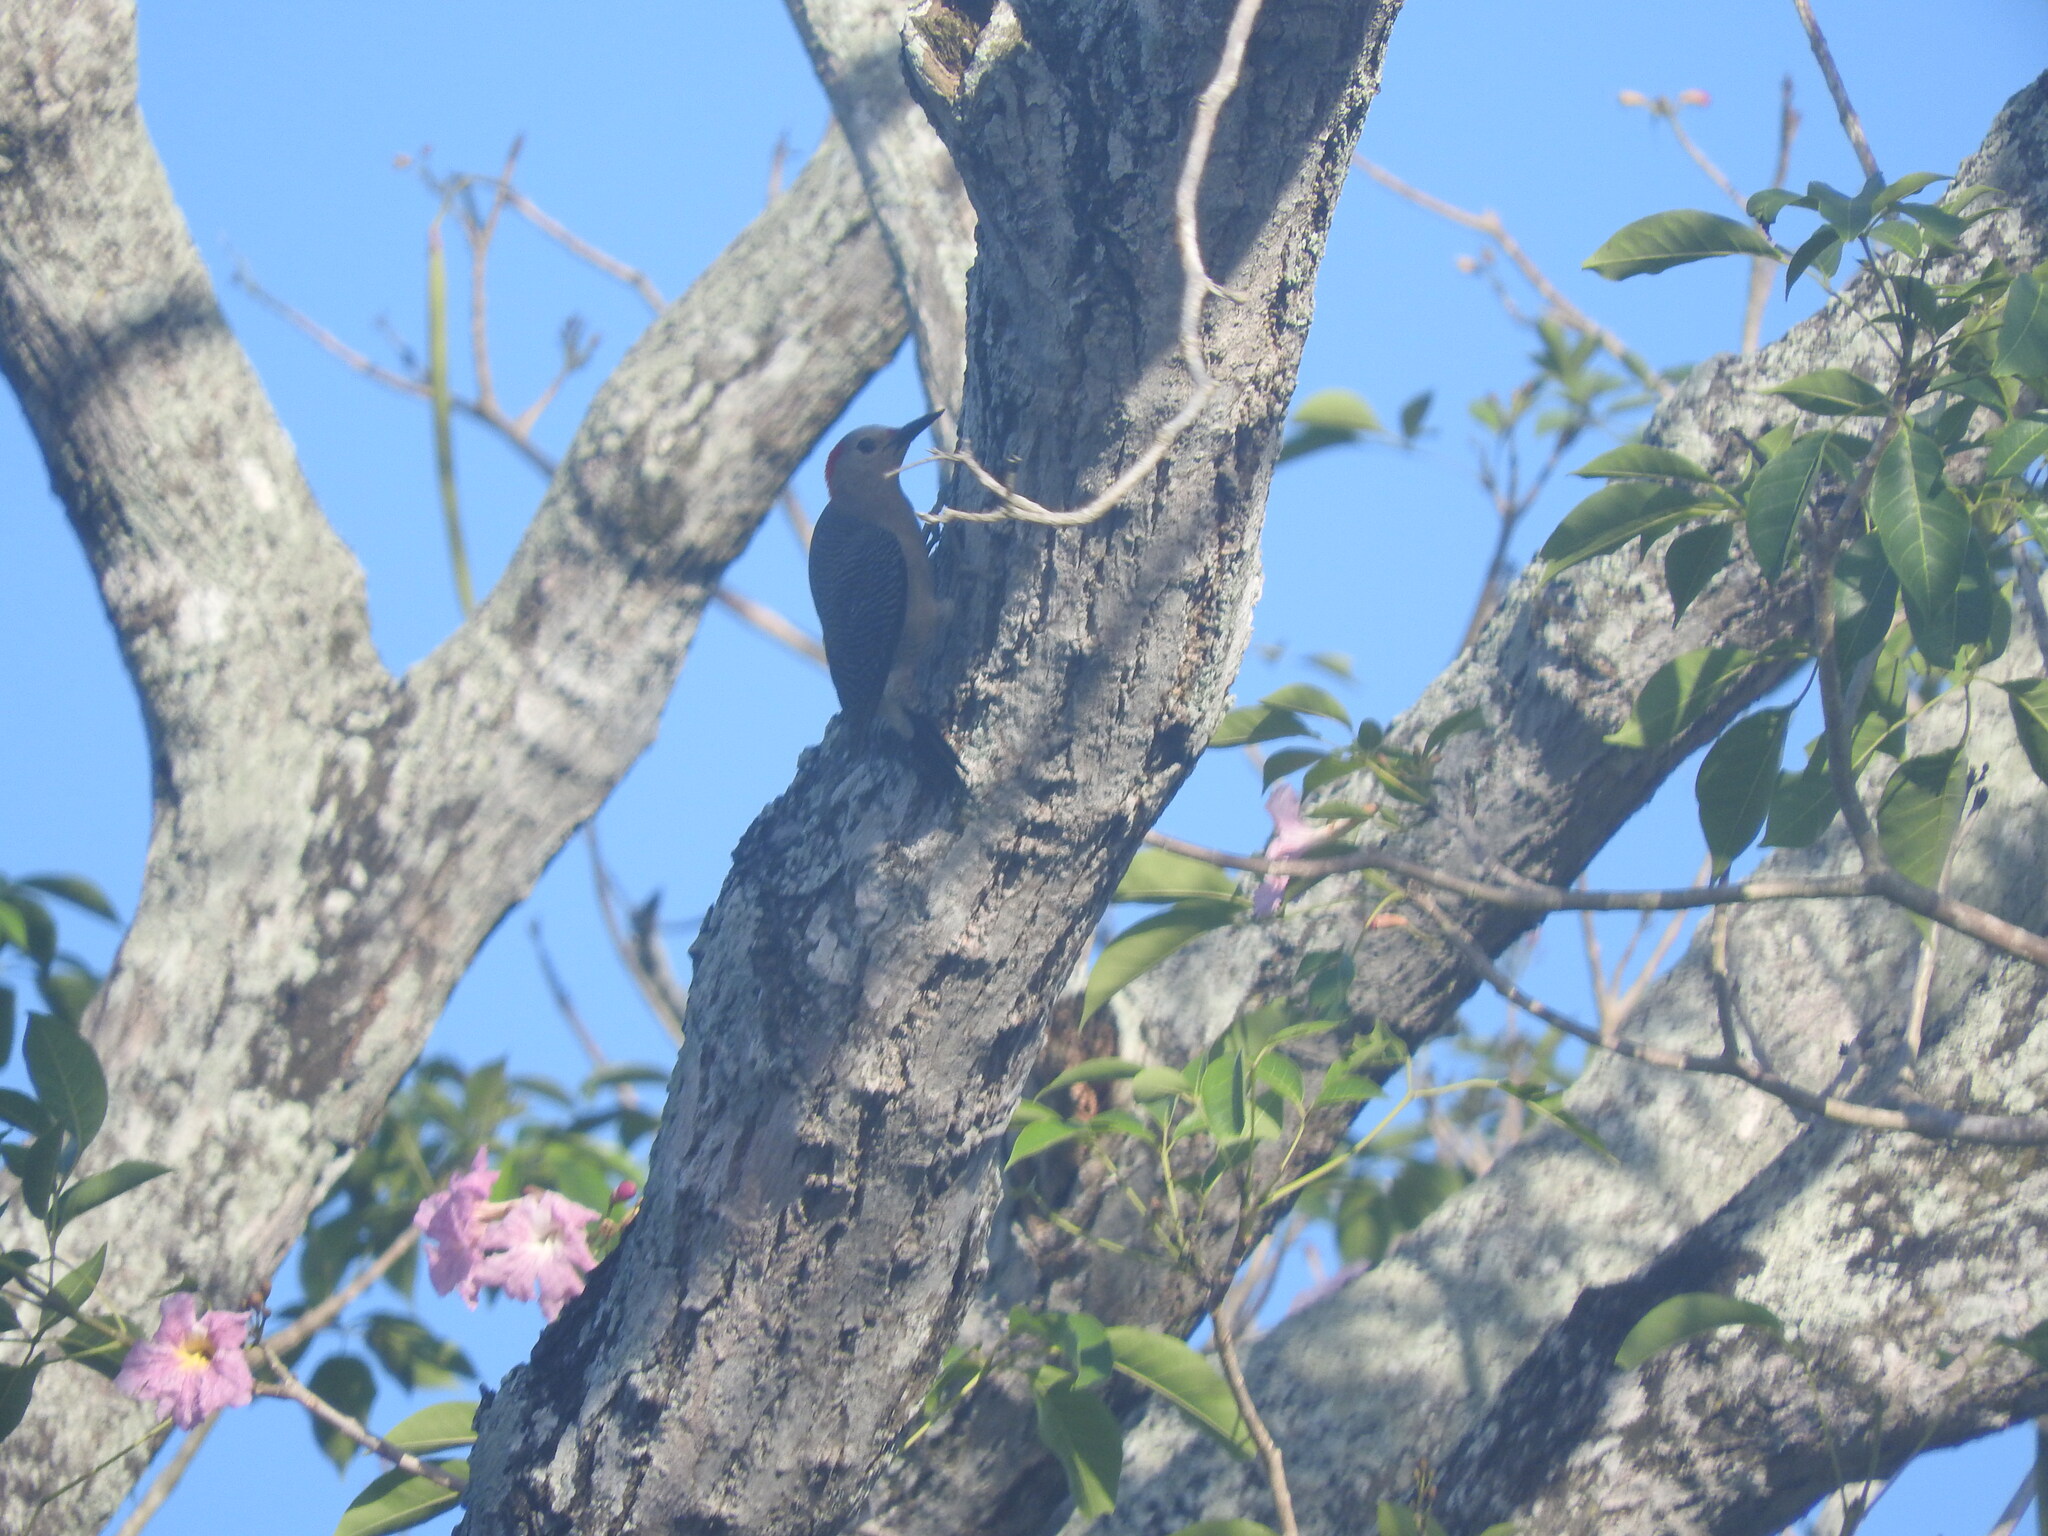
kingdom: Animalia
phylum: Chordata
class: Aves
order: Piciformes
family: Picidae
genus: Melanerpes
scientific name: Melanerpes aurifrons
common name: Golden-fronted woodpecker
